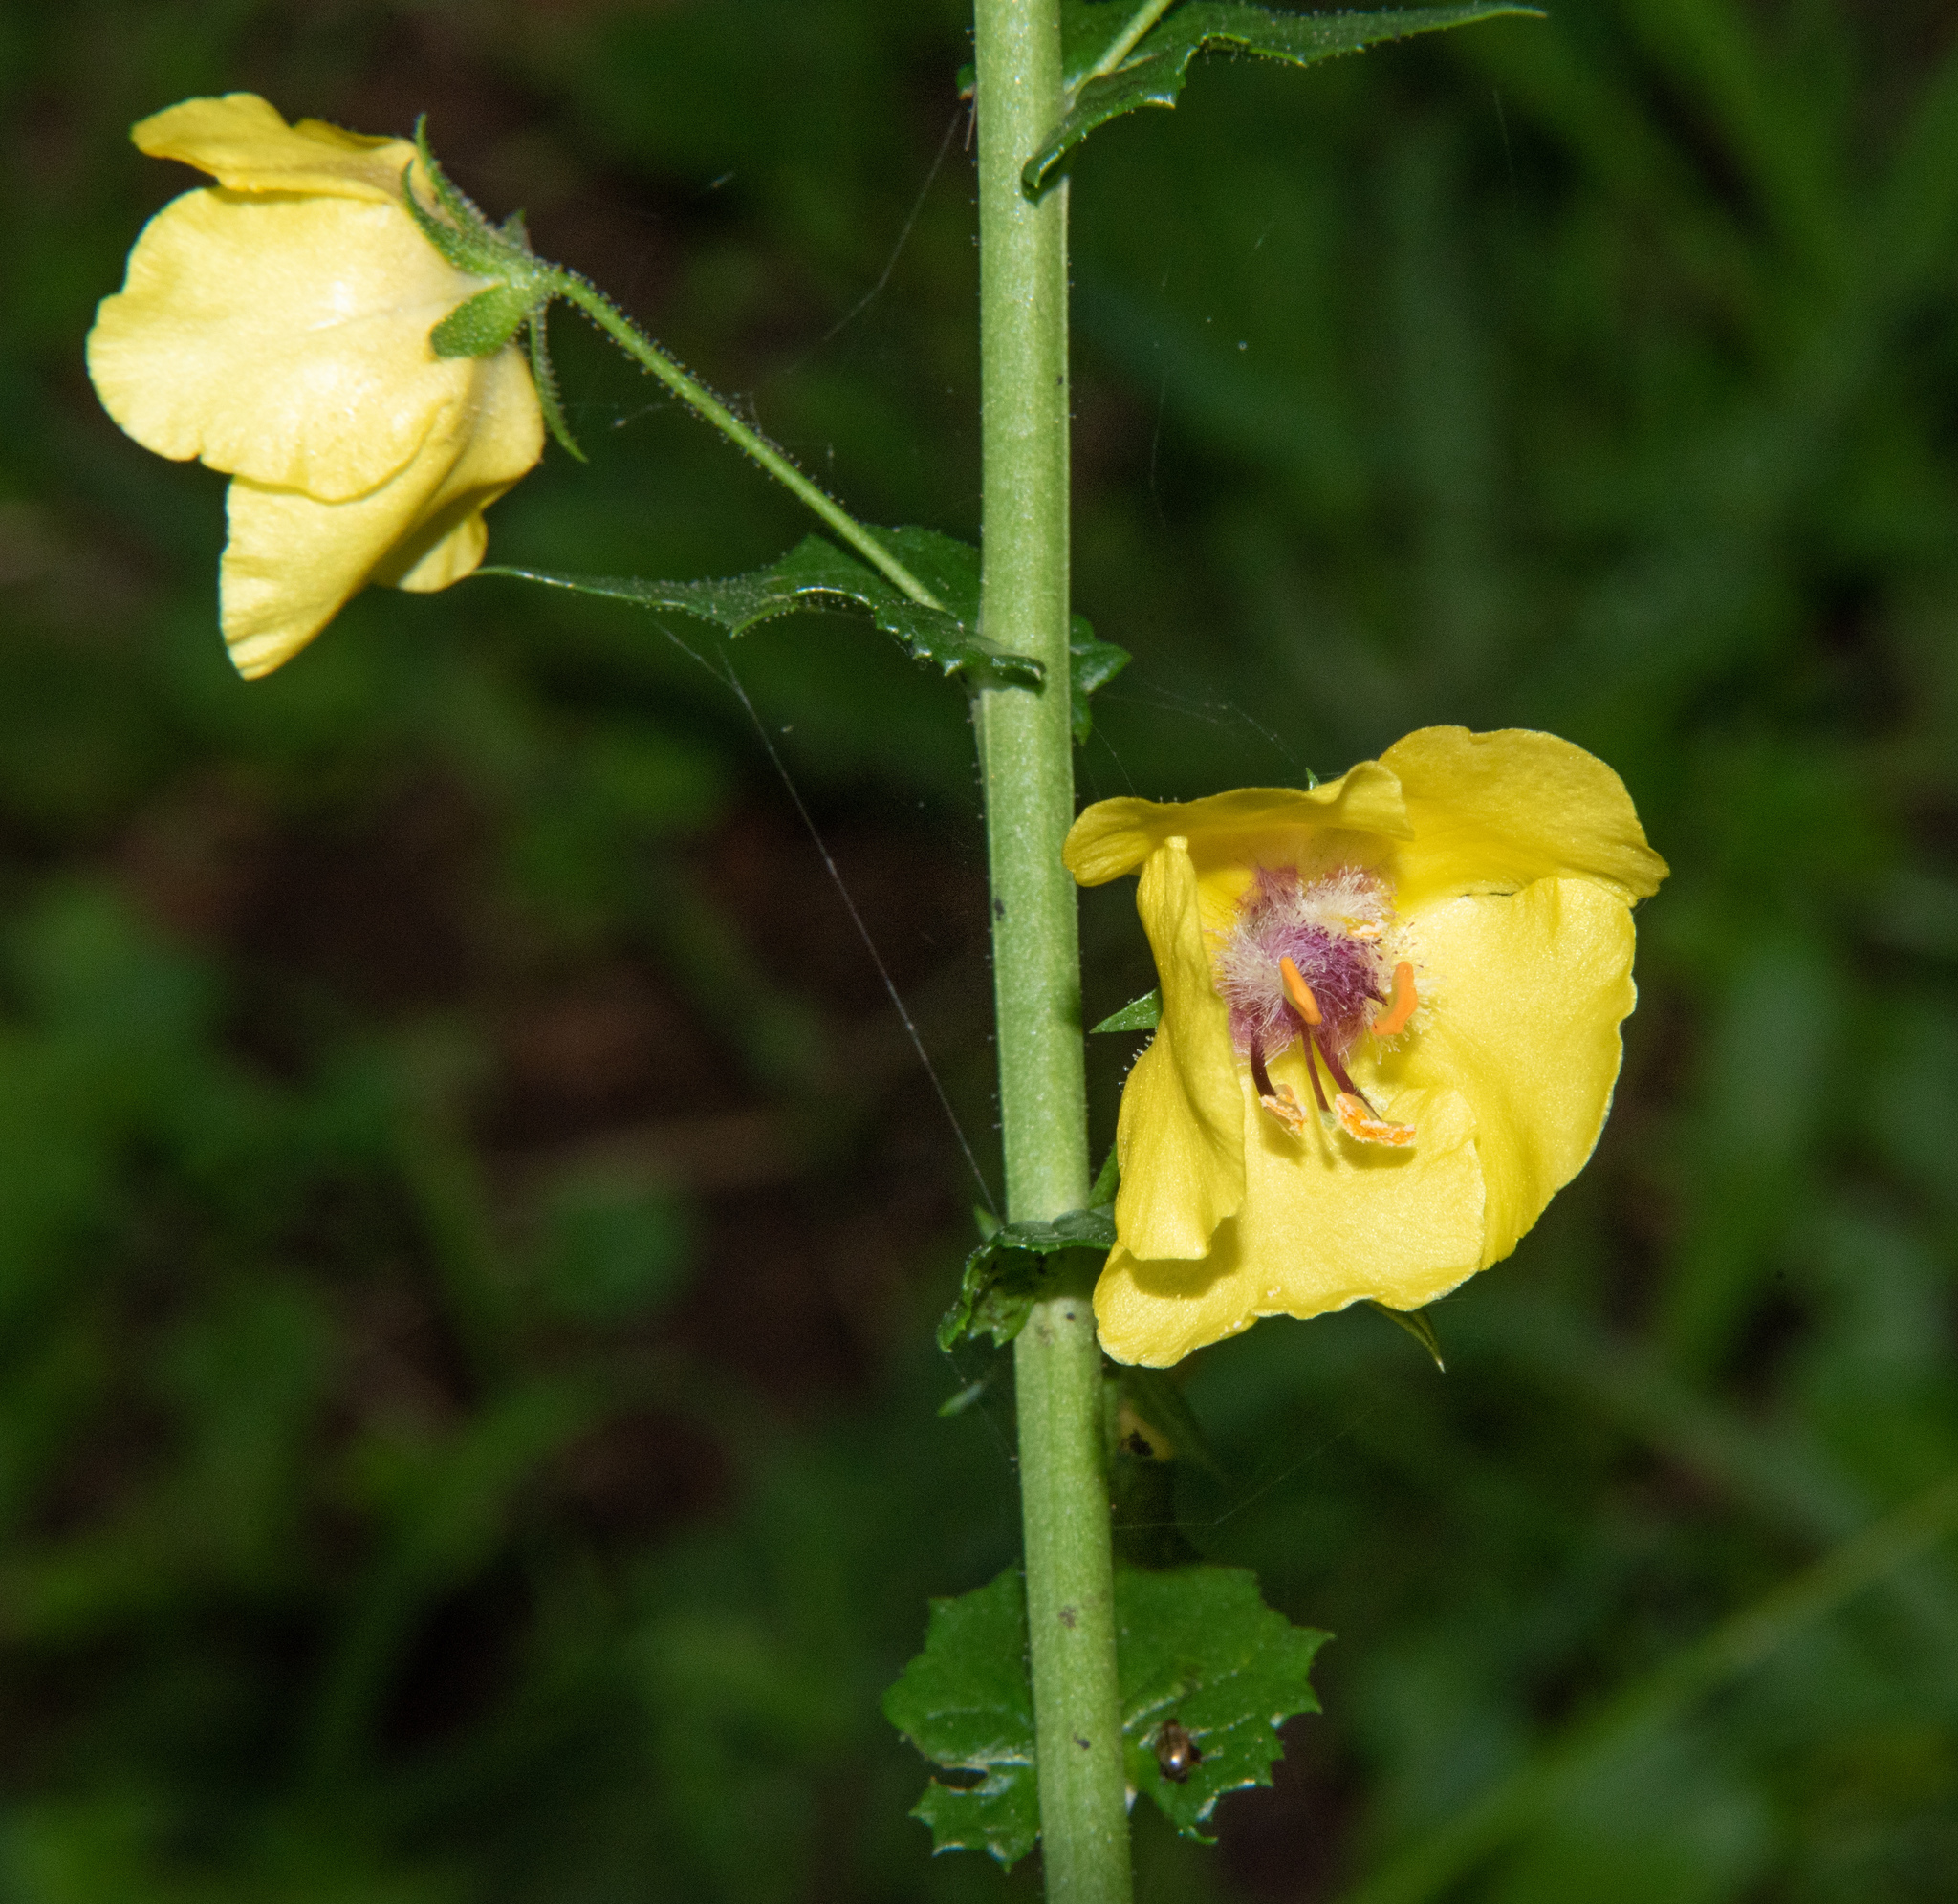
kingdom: Plantae
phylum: Tracheophyta
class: Magnoliopsida
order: Lamiales
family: Scrophulariaceae
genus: Verbascum
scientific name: Verbascum blattaria
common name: Moth mullein
